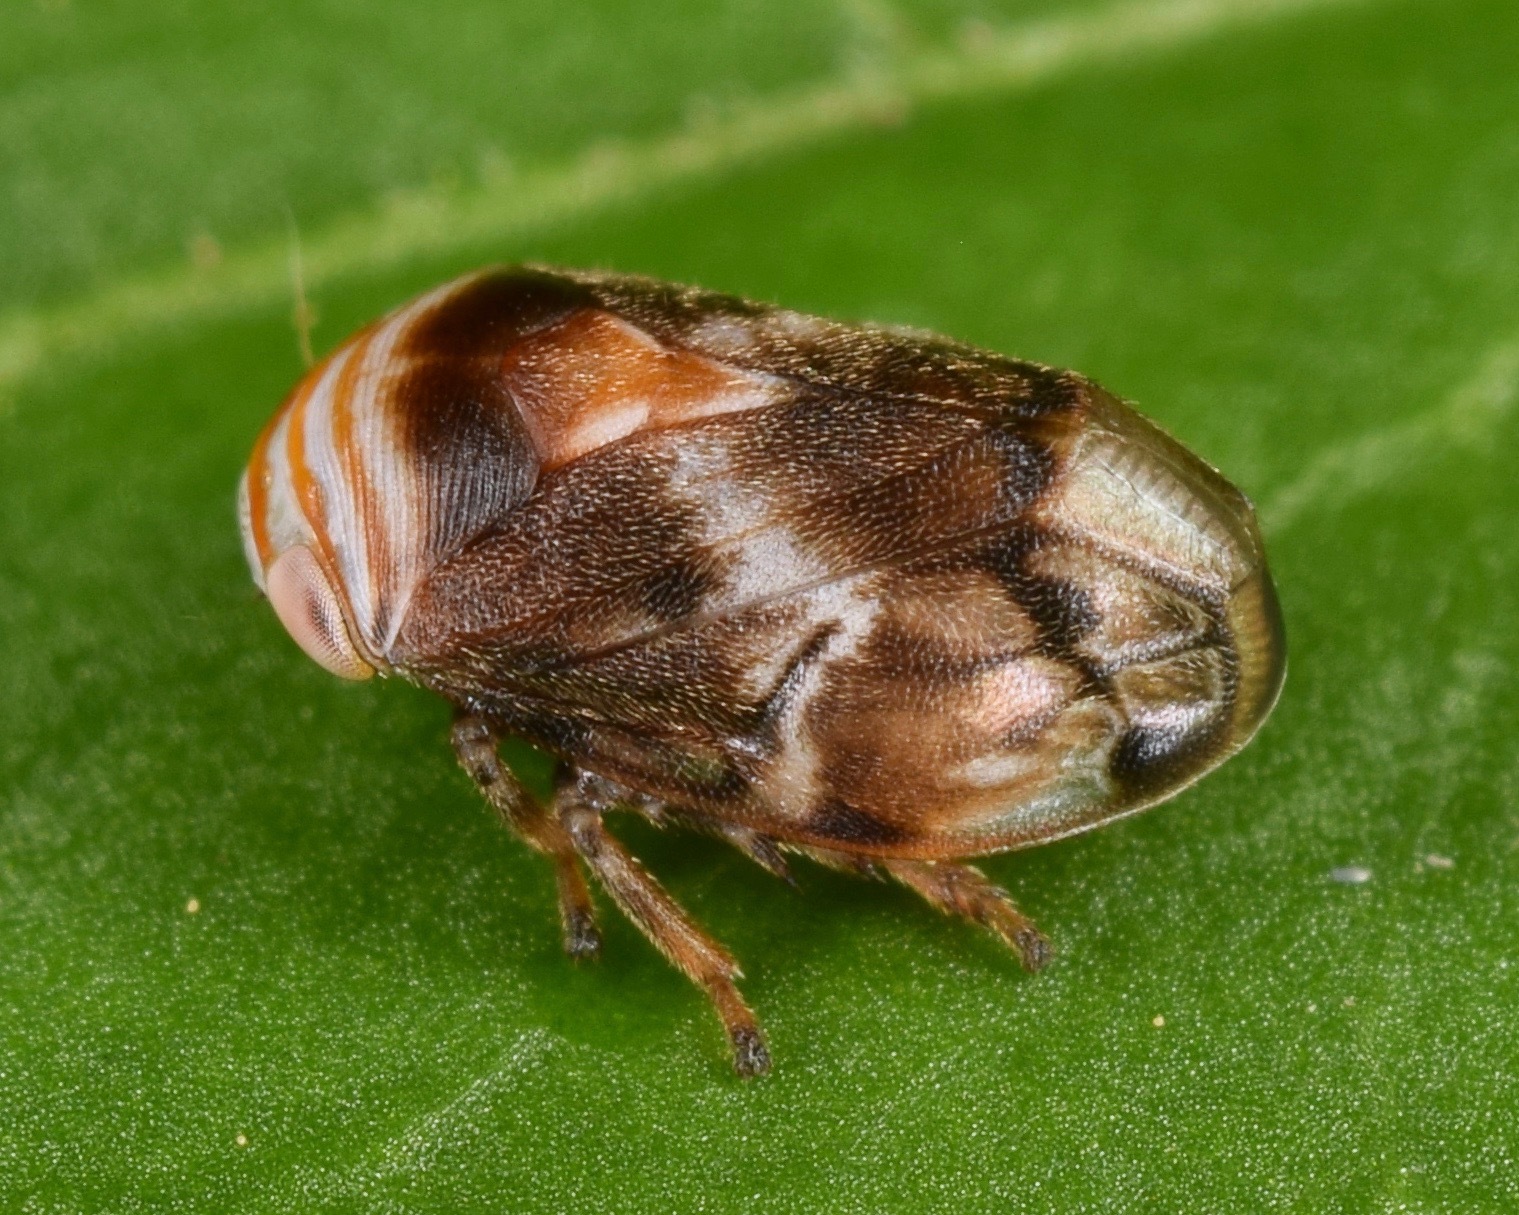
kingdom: Animalia
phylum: Arthropoda
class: Insecta
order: Hemiptera
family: Clastopteridae
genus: Clastoptera
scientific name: Clastoptera obtusa
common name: Alder spittlebug
